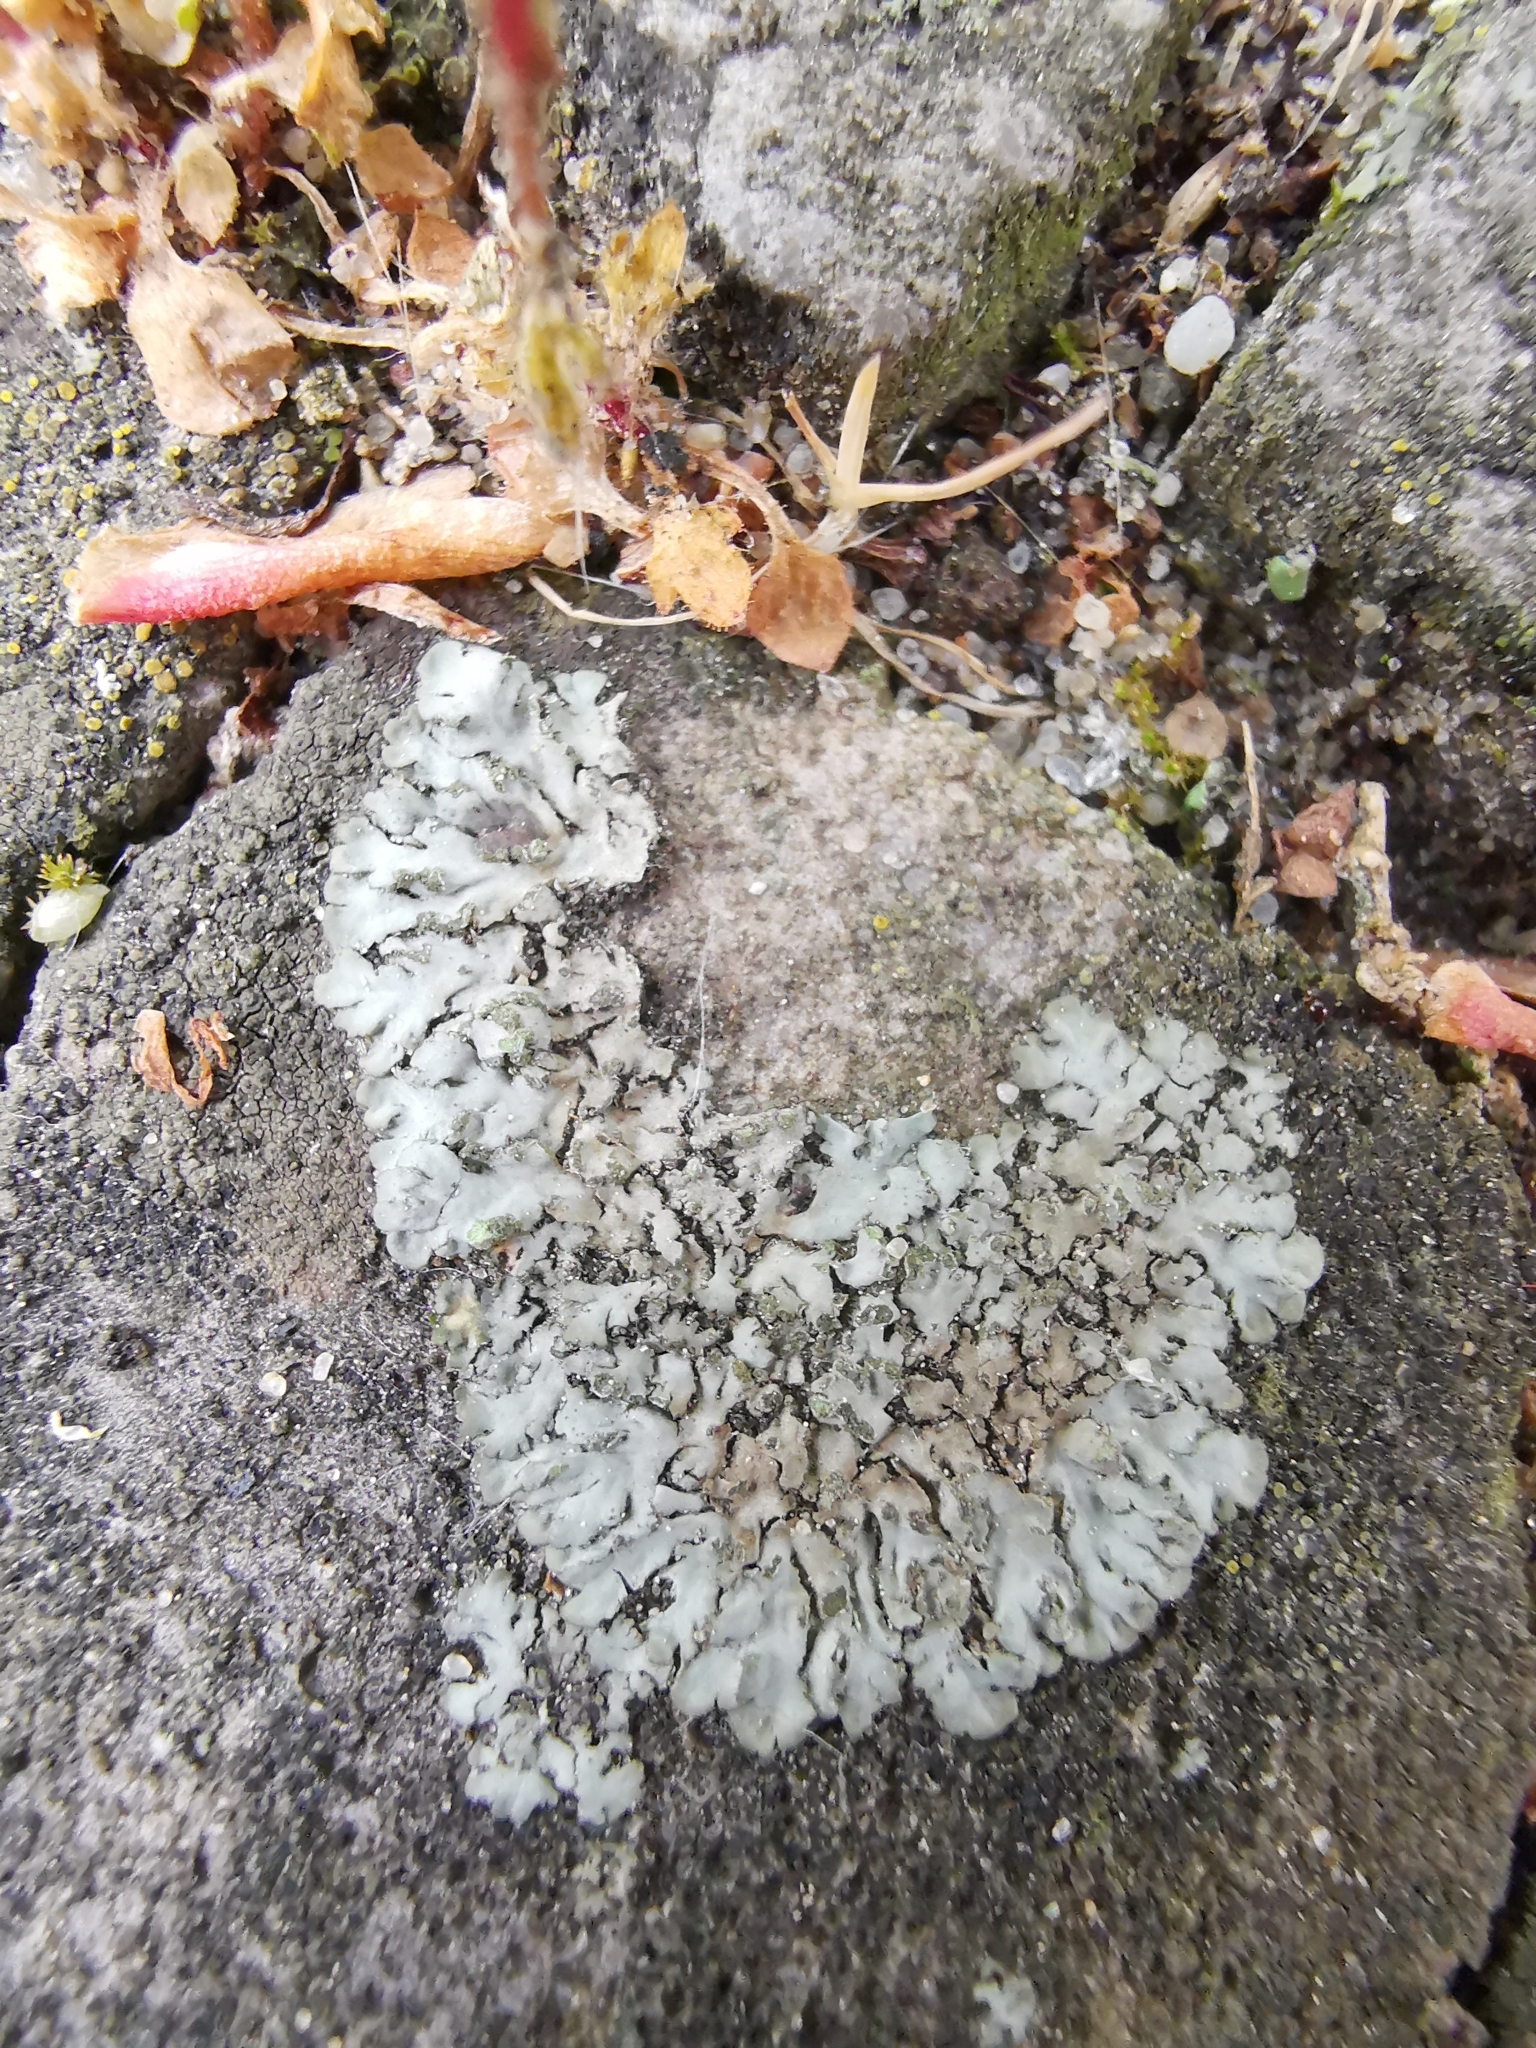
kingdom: Fungi
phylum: Ascomycota
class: Lecanoromycetes
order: Caliciales
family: Physciaceae
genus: Phaeophyscia
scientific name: Phaeophyscia orbicularis
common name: Mealy shadow lichen
